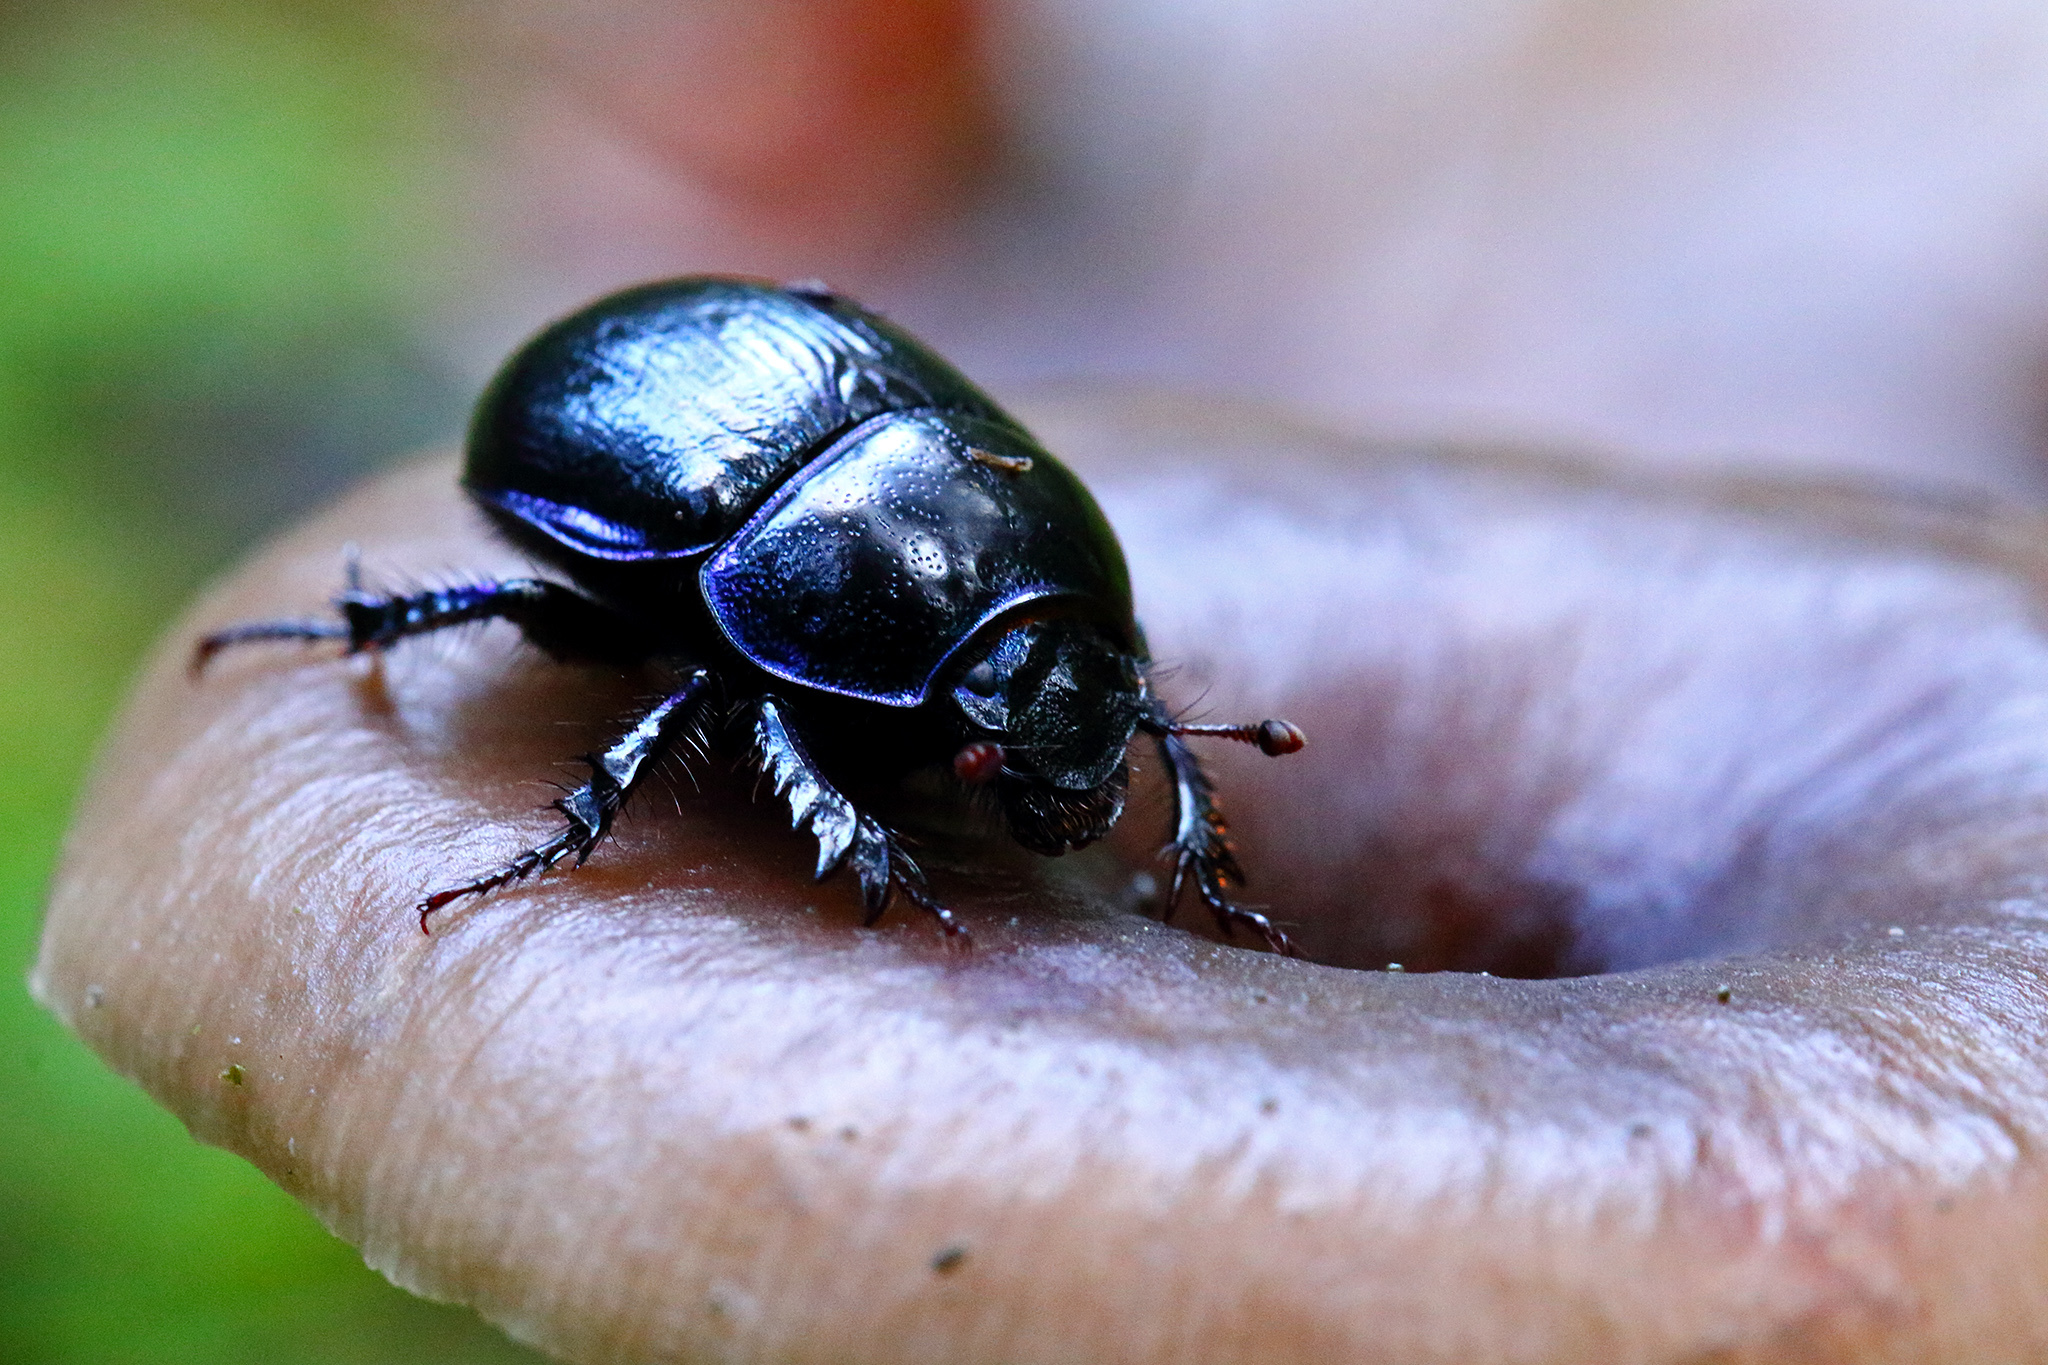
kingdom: Animalia
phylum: Arthropoda
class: Insecta
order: Coleoptera
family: Geotrupidae
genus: Anoplotrupes
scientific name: Anoplotrupes stercorosus
